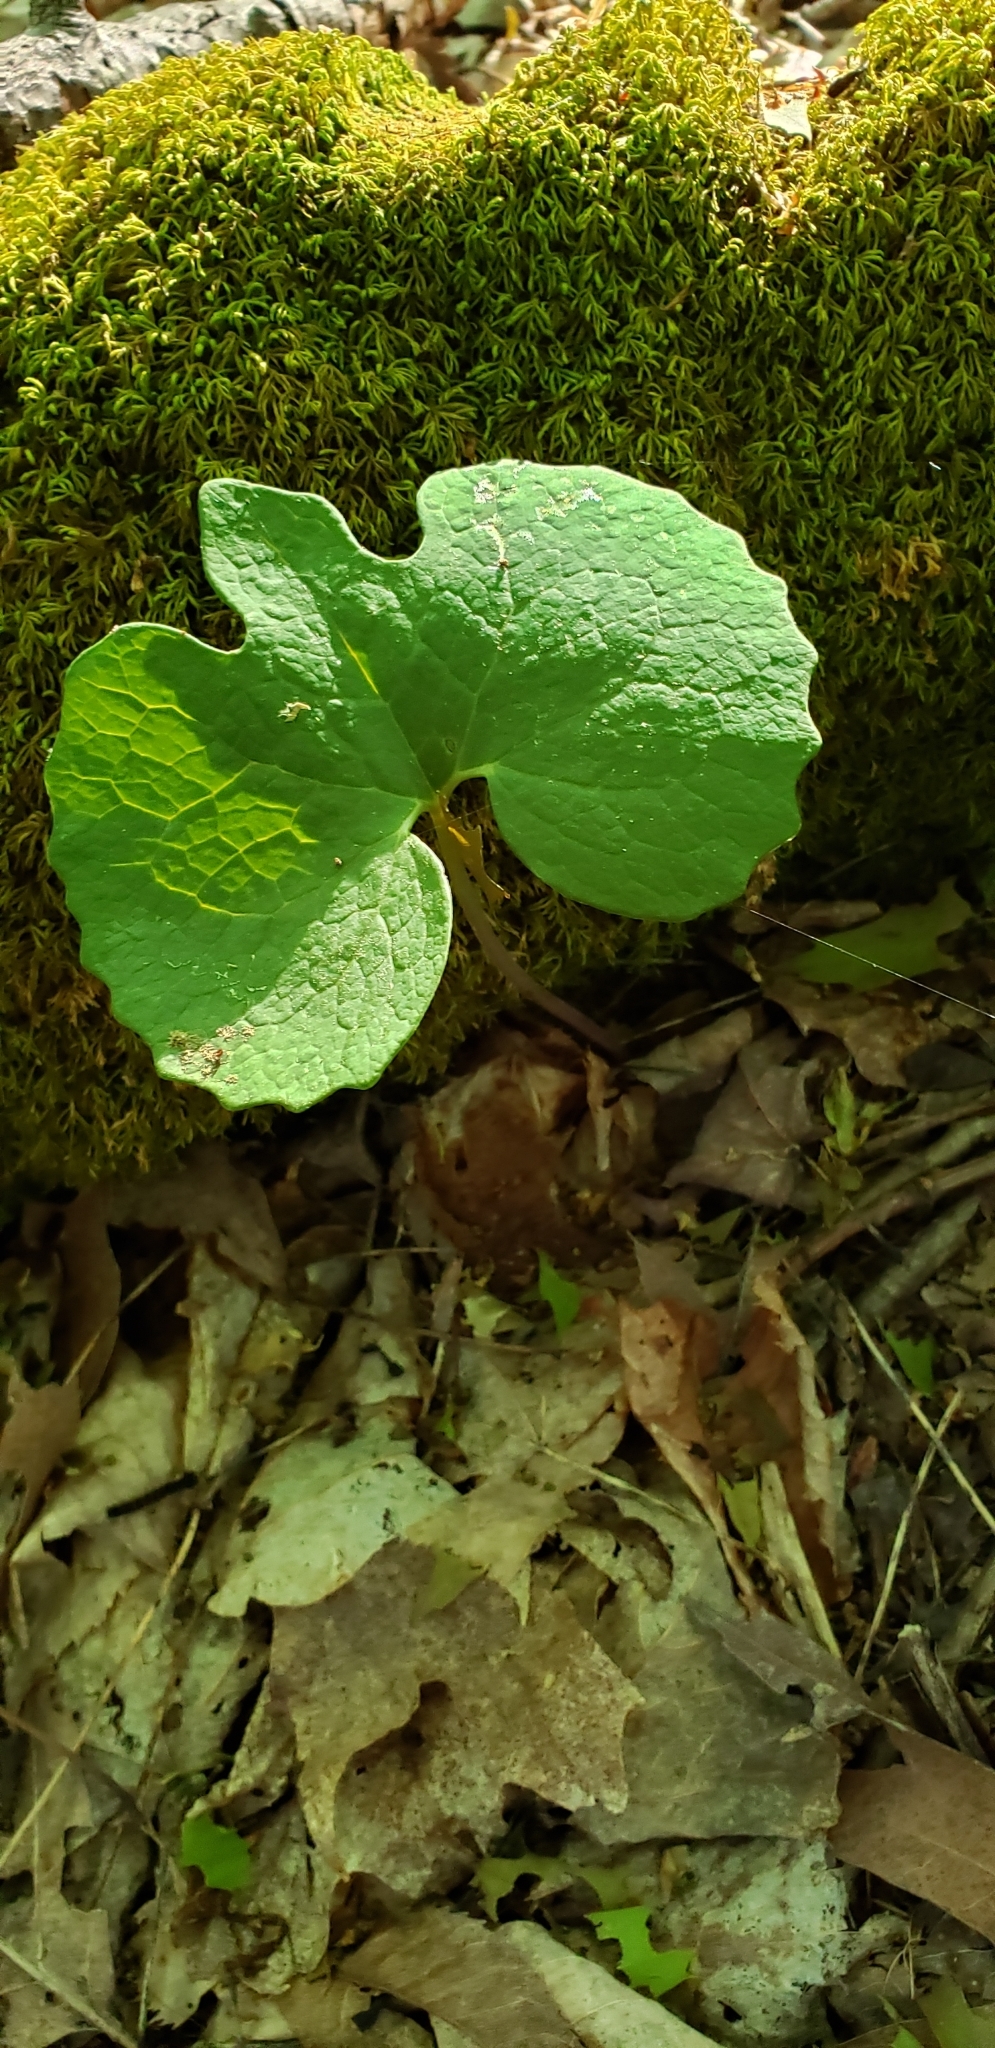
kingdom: Plantae
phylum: Tracheophyta
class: Magnoliopsida
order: Ranunculales
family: Papaveraceae
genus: Sanguinaria
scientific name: Sanguinaria canadensis
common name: Bloodroot
